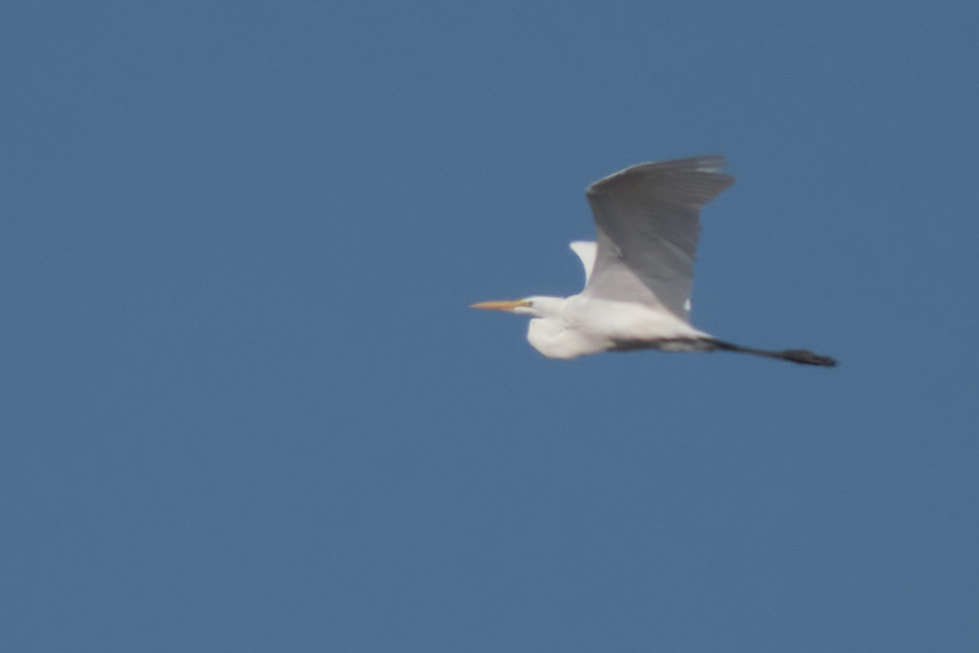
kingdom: Animalia
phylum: Chordata
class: Aves
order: Pelecaniformes
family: Ardeidae
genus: Ardea
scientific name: Ardea alba
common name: Great egret
